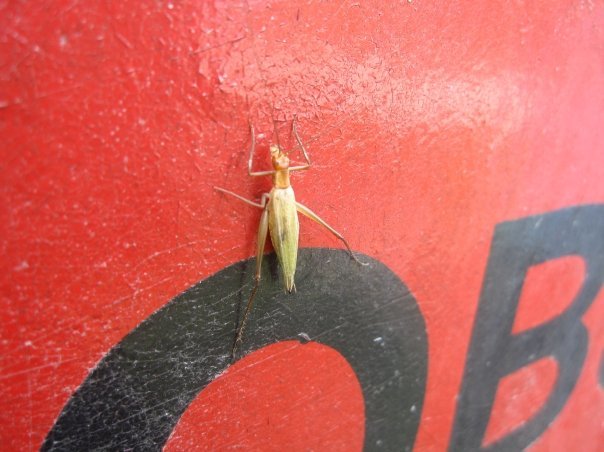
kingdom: Animalia
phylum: Arthropoda
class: Insecta
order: Orthoptera
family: Gryllidae
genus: Oecanthus
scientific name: Oecanthus pini
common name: Pine tree cricket
